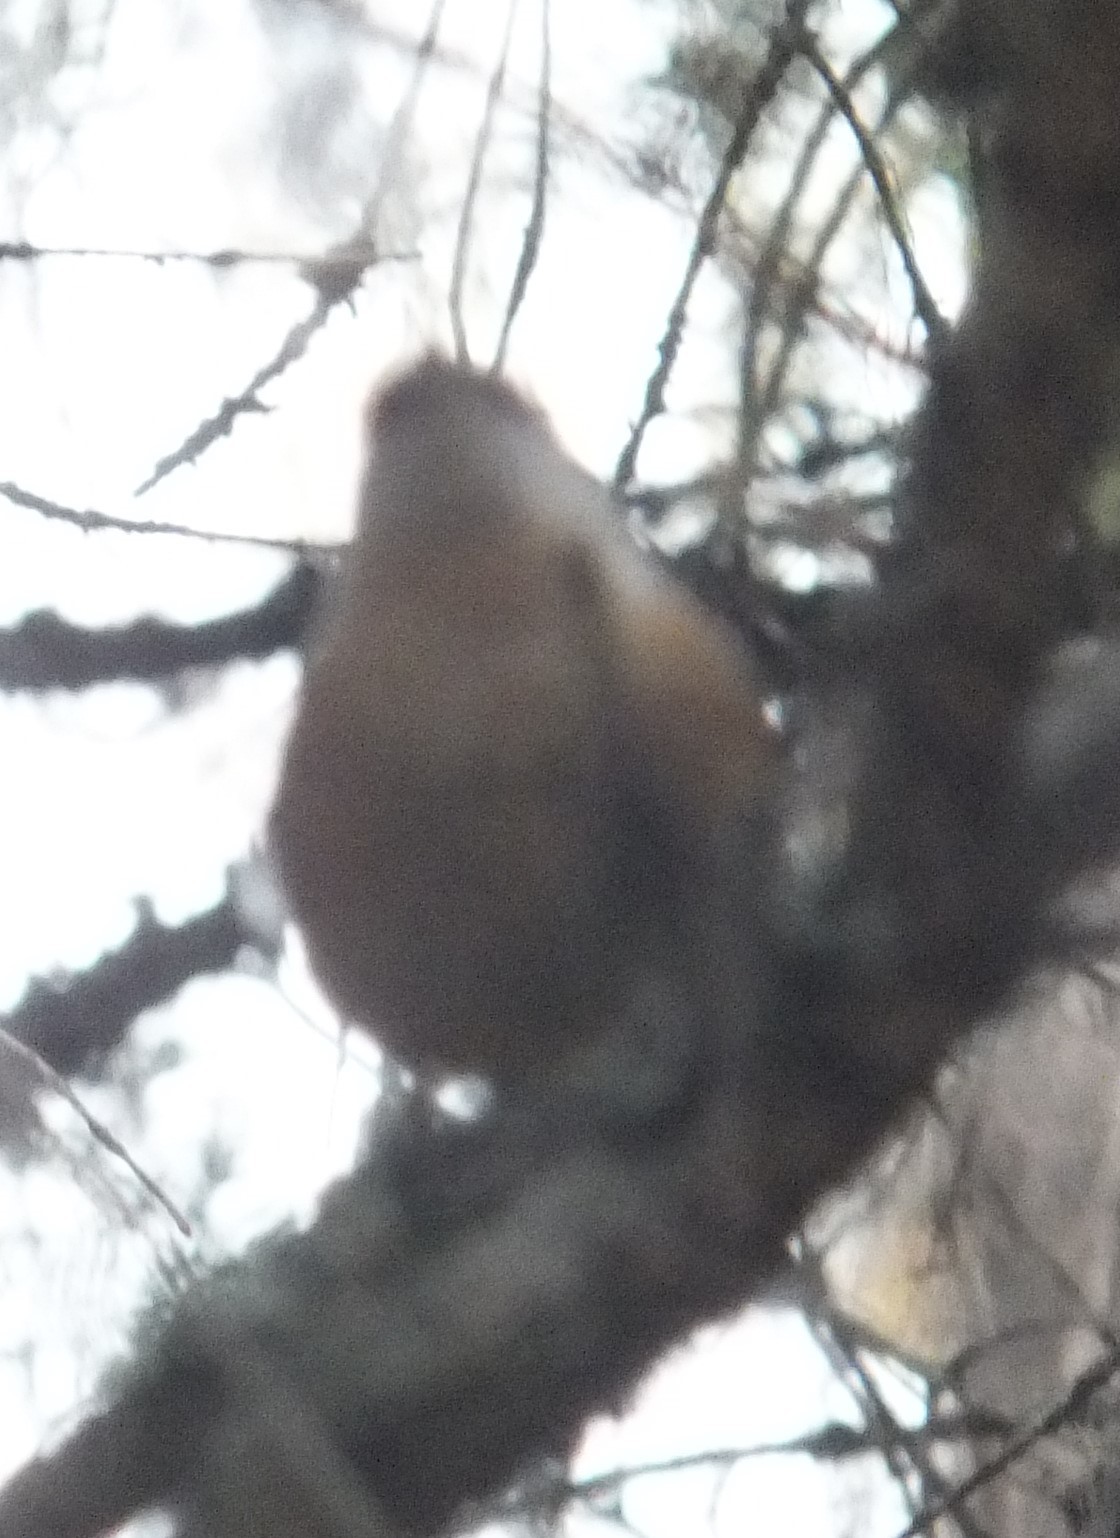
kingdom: Animalia
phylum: Chordata
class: Aves
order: Passeriformes
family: Sittidae
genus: Sitta
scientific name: Sitta canadensis
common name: Red-breasted nuthatch
